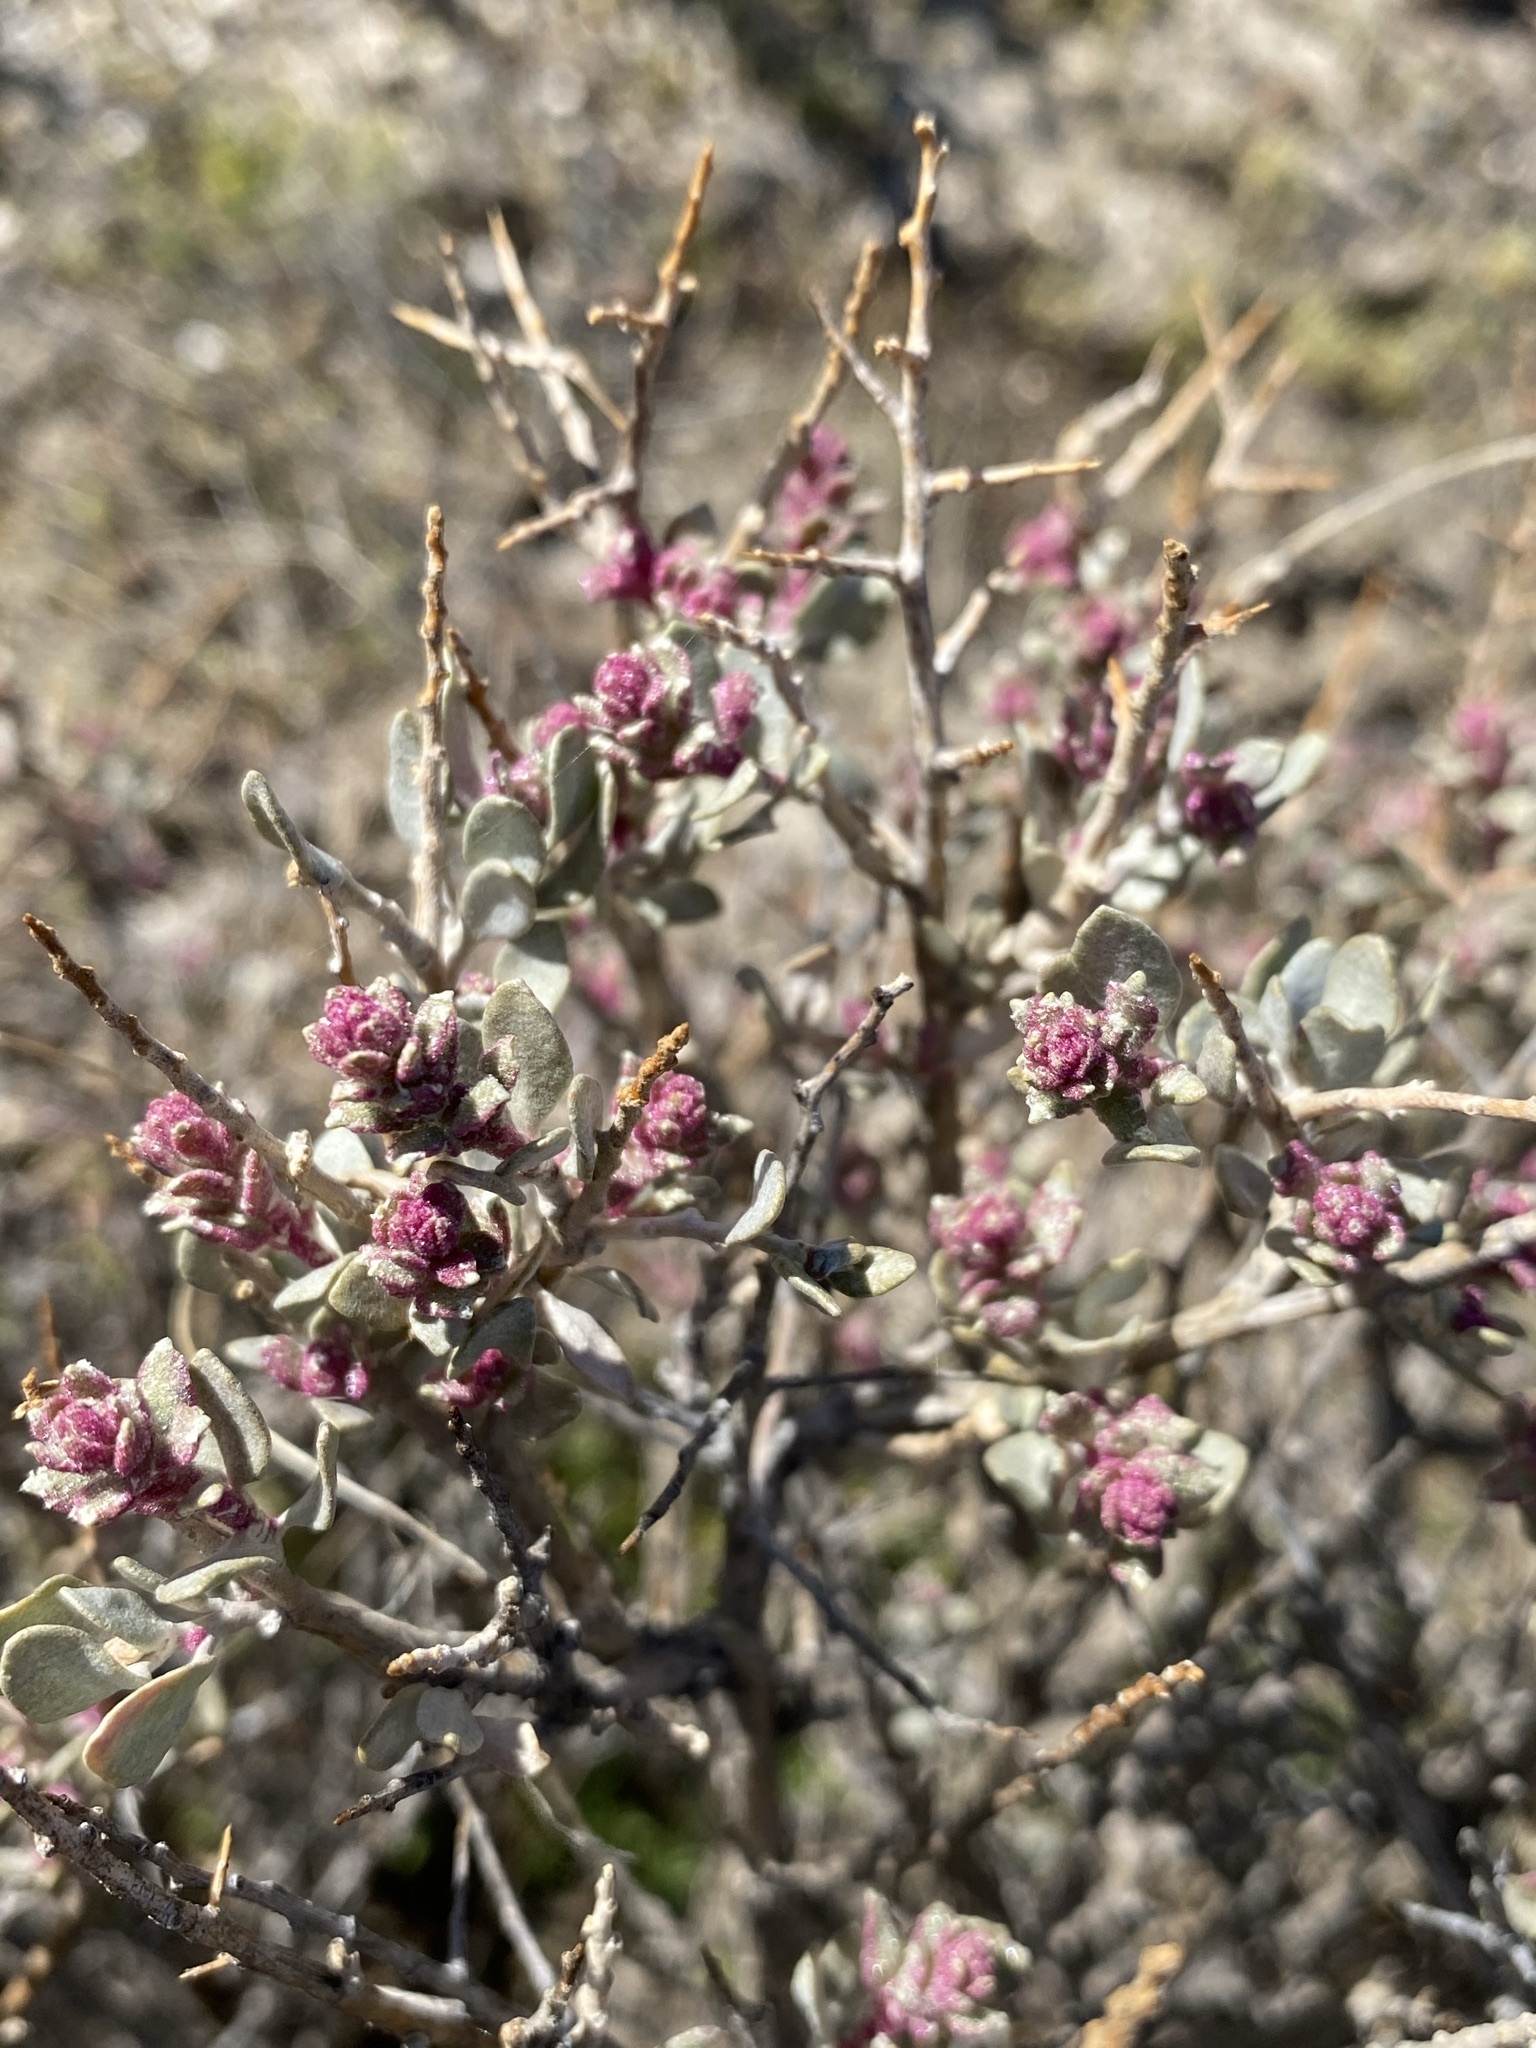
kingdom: Plantae
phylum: Tracheophyta
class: Magnoliopsida
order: Caryophyllales
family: Amaranthaceae
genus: Atriplex
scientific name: Atriplex confertifolia
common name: Shadscale
